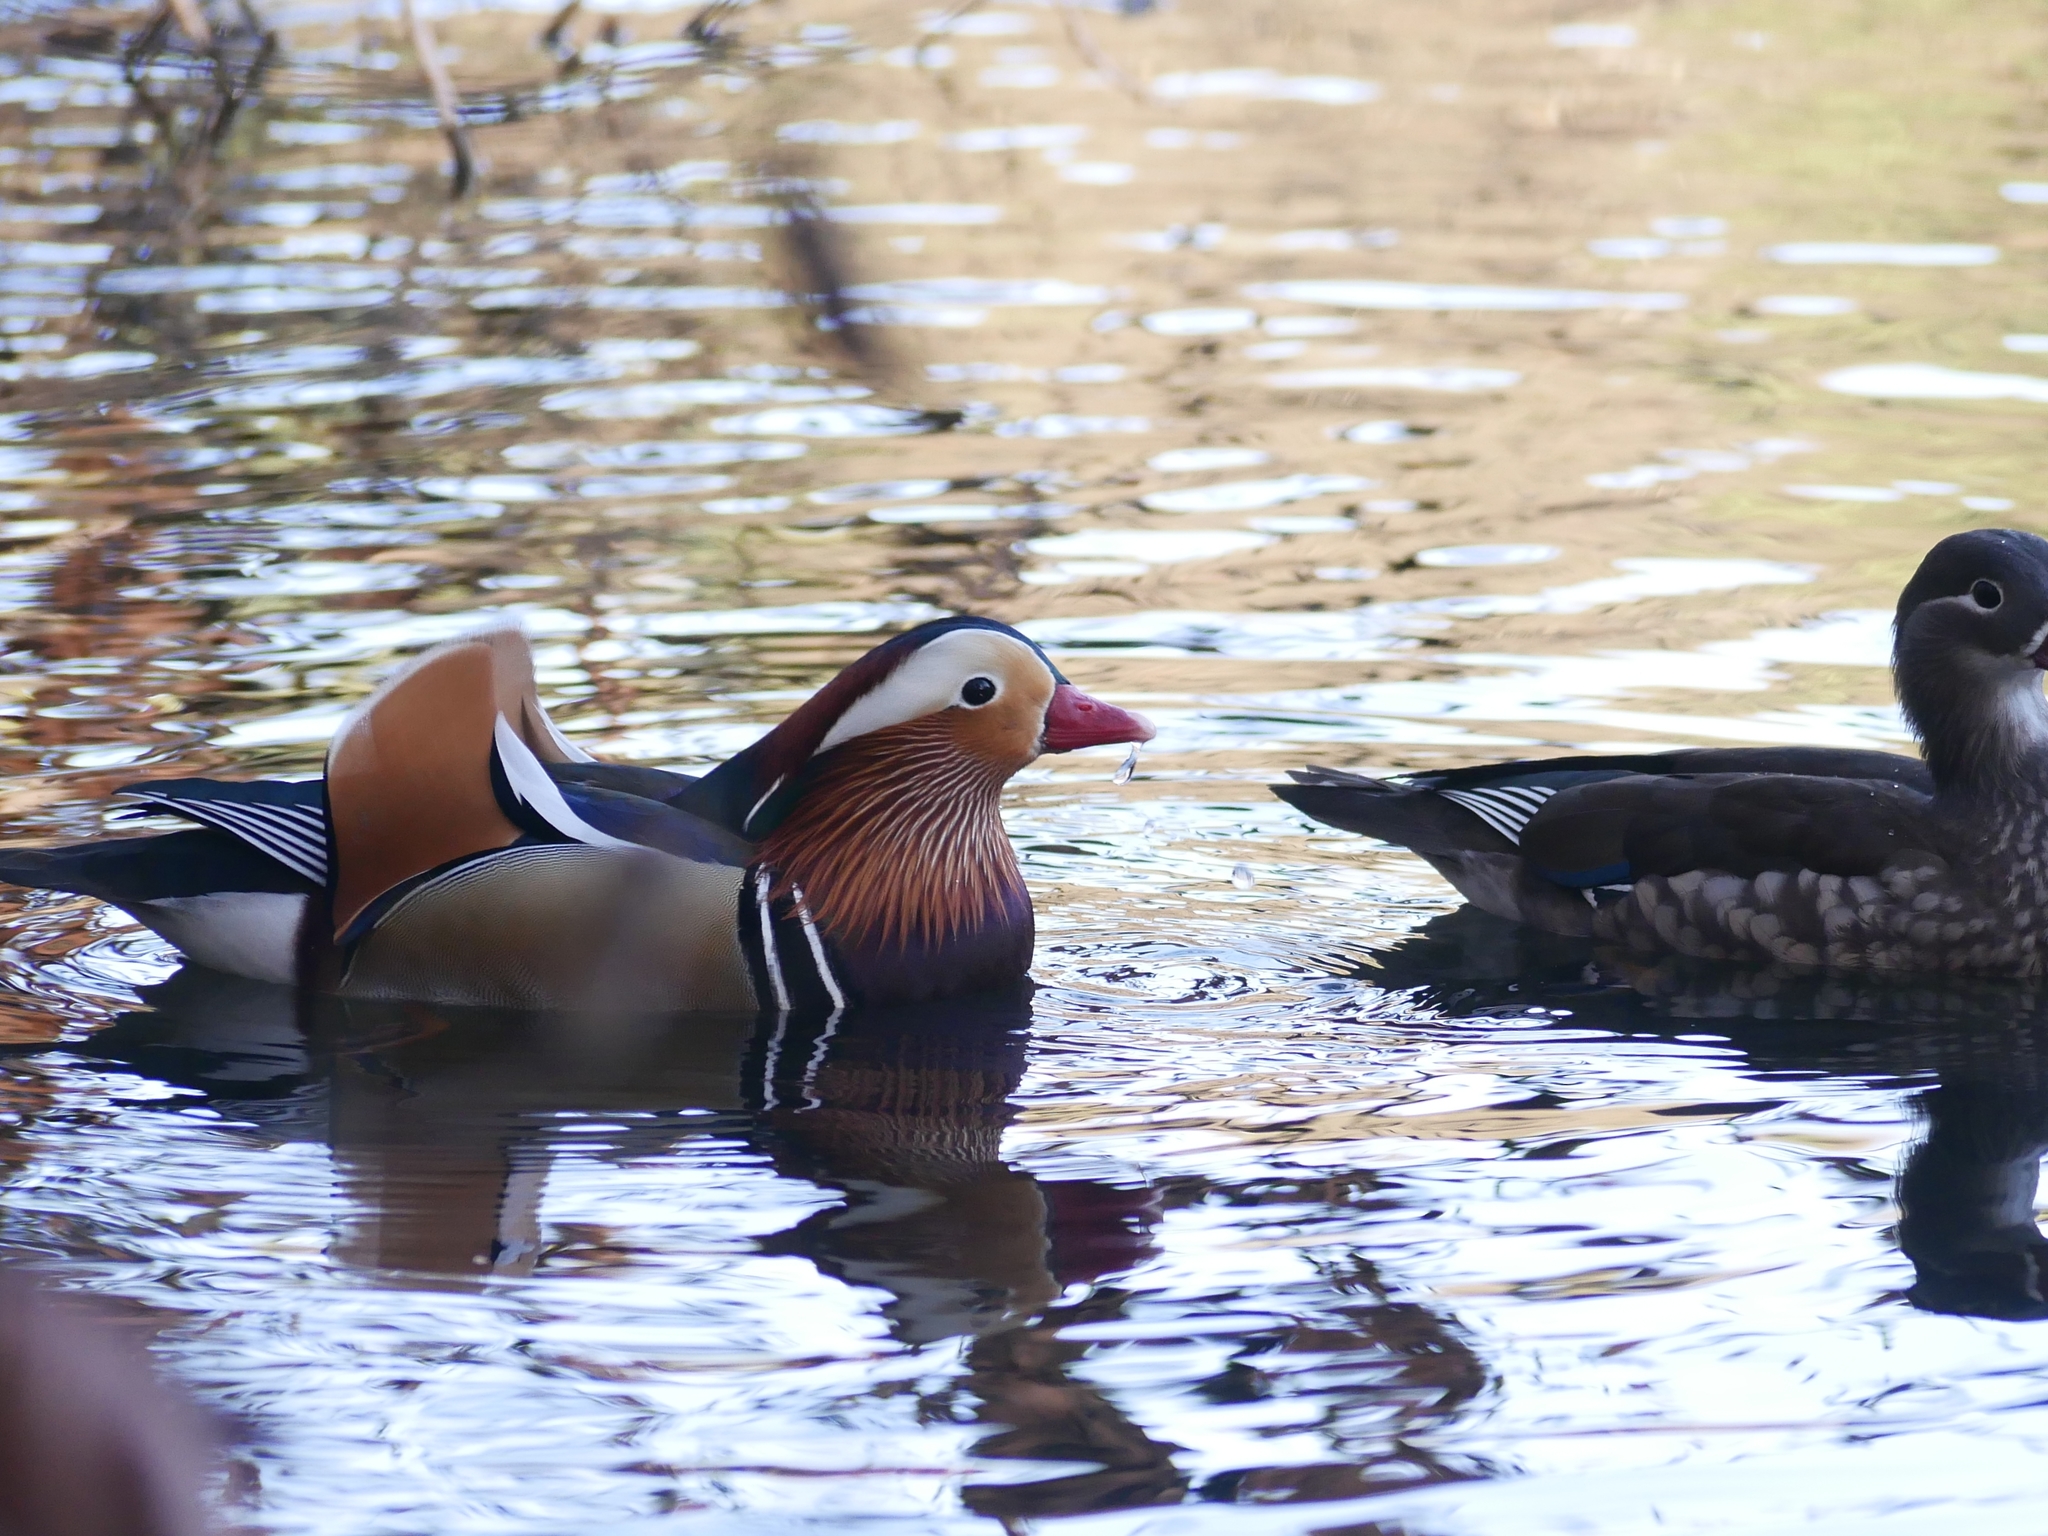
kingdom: Animalia
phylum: Chordata
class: Aves
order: Anseriformes
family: Anatidae
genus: Aix
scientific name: Aix galericulata
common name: Mandarin duck
